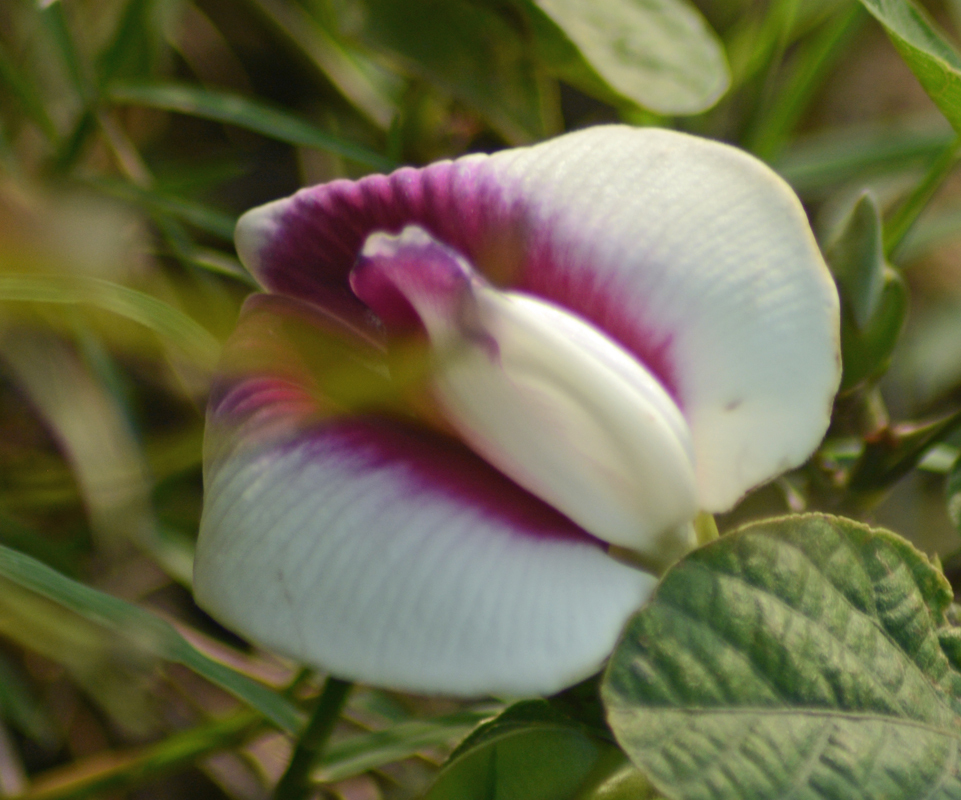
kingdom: Plantae
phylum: Tracheophyta
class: Magnoliopsida
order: Fabales
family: Fabaceae
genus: Centrosema
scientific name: Centrosema plumieri
